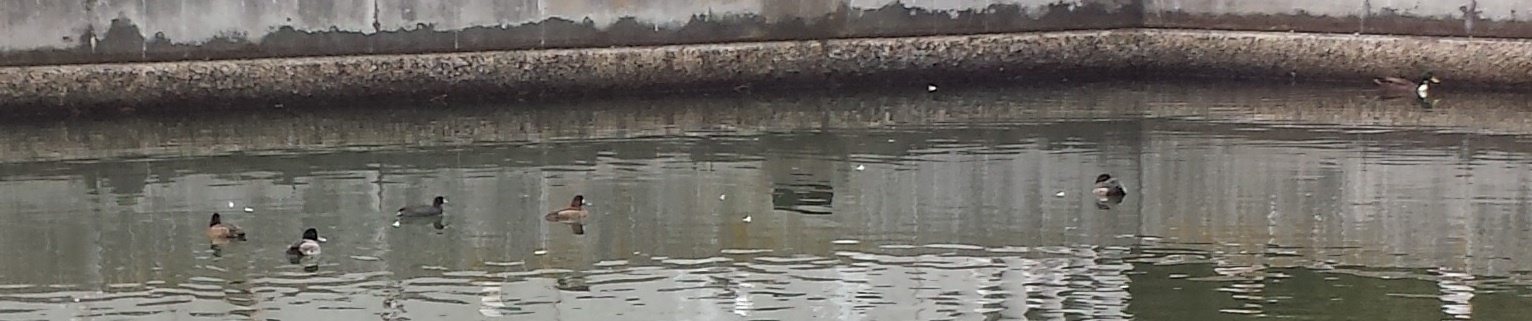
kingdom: Animalia
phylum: Chordata
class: Aves
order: Anseriformes
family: Anatidae
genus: Aythya
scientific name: Aythya affinis
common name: Lesser scaup
